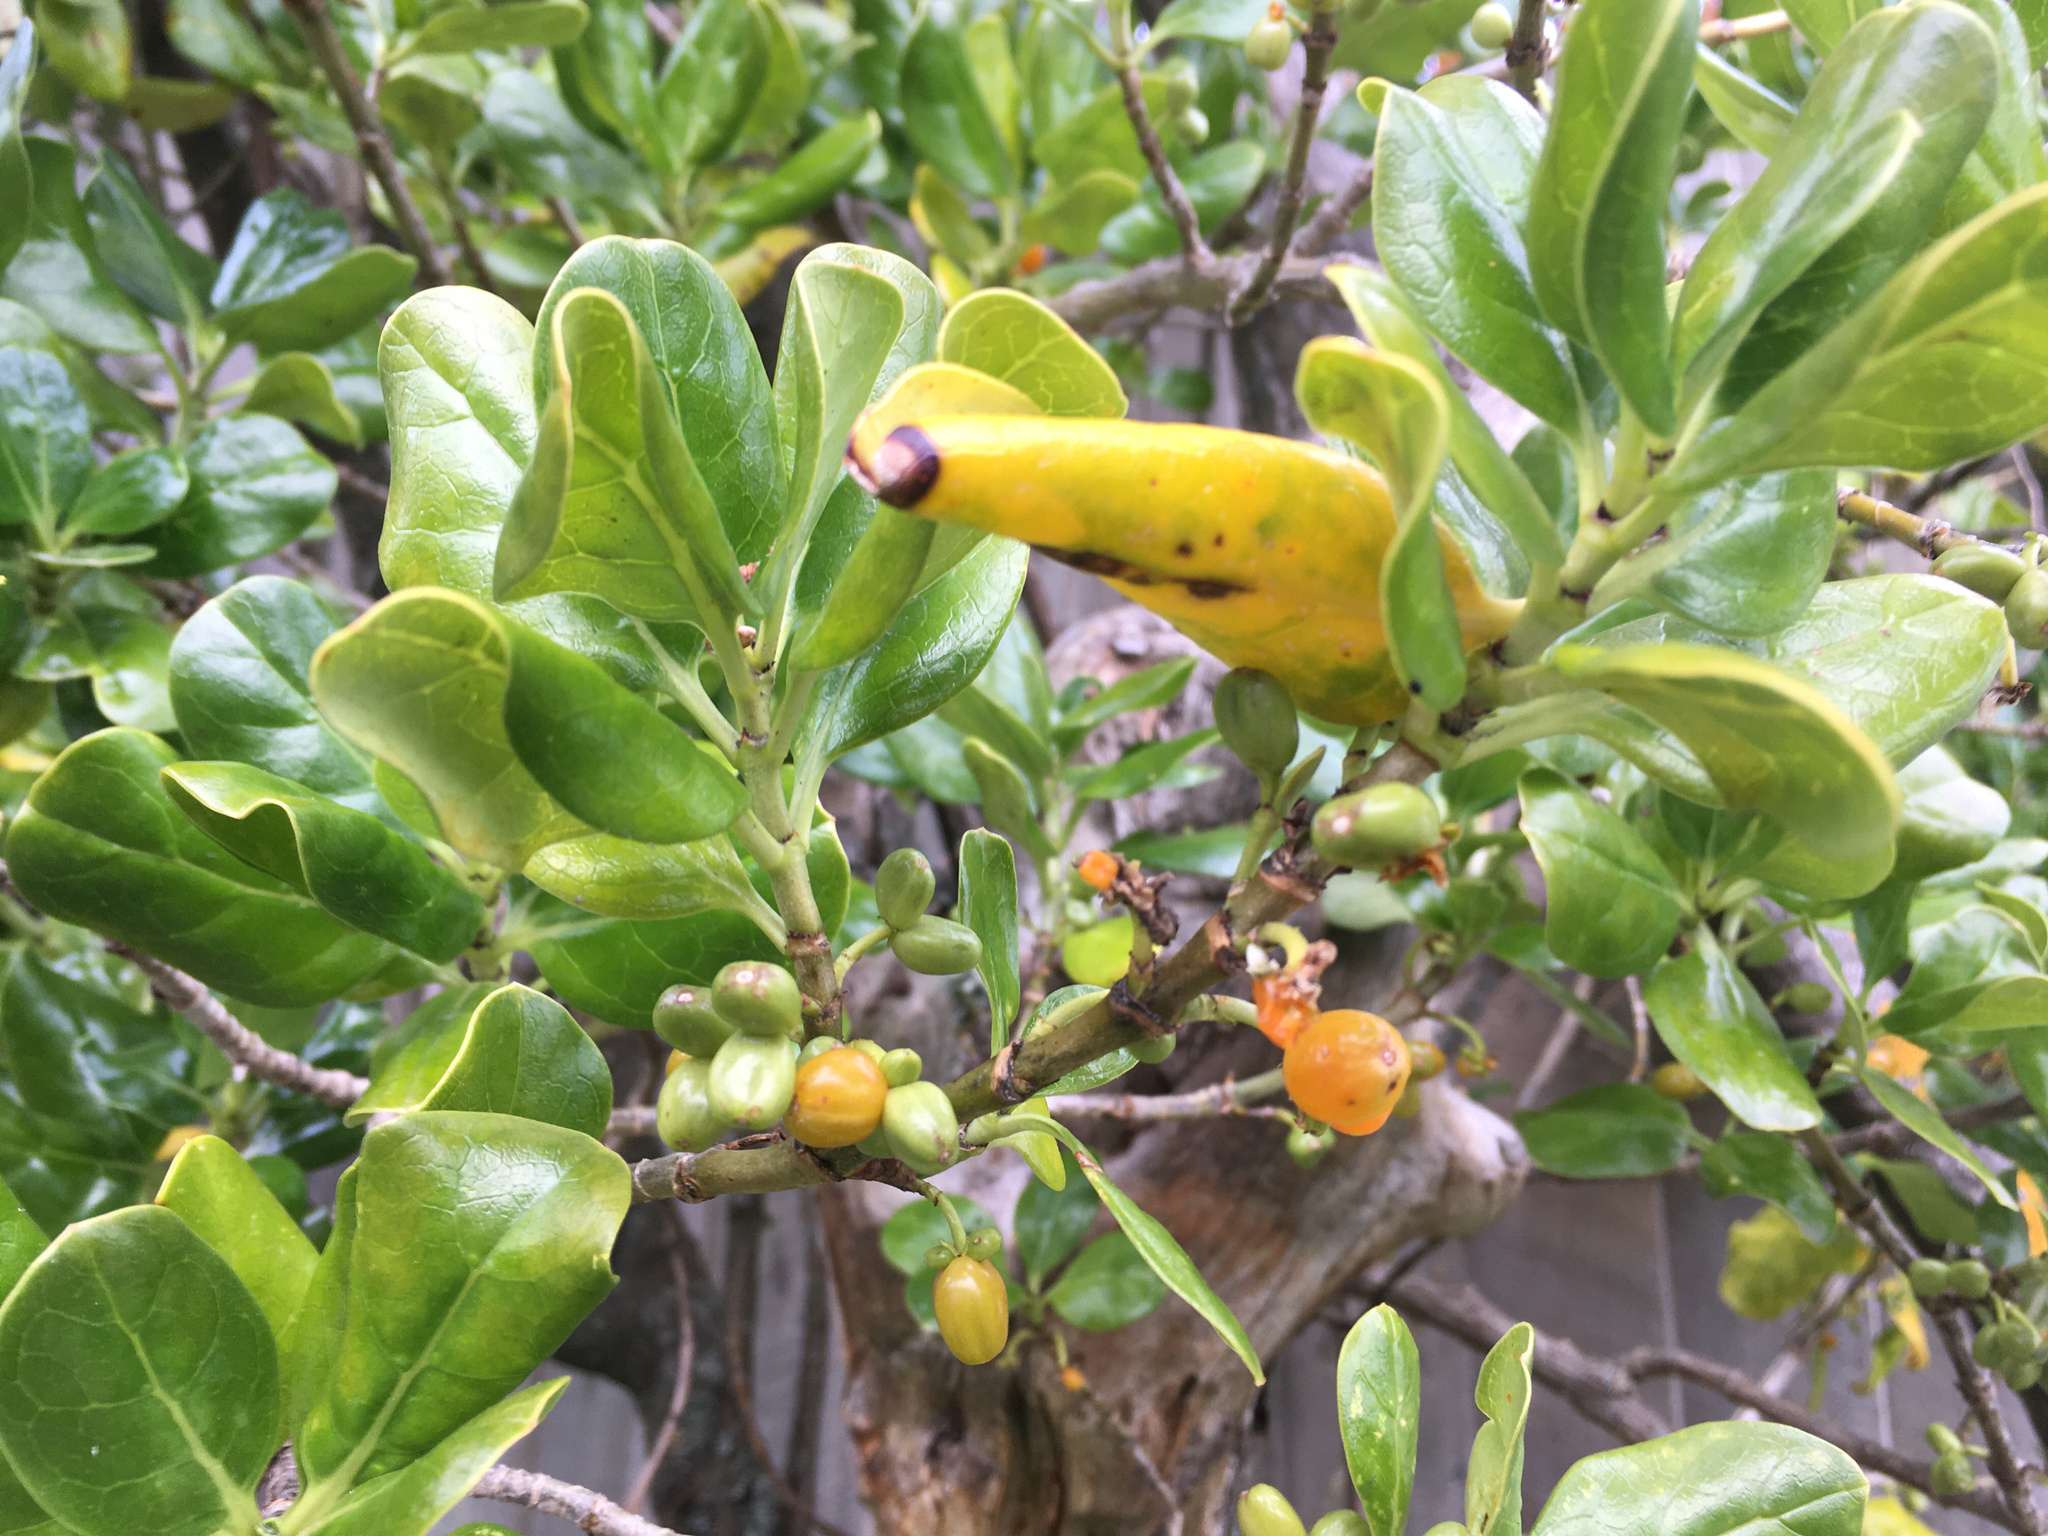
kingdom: Plantae
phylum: Tracheophyta
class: Magnoliopsida
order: Gentianales
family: Rubiaceae
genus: Coprosma
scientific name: Coprosma repens
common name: Tree bedstraw
